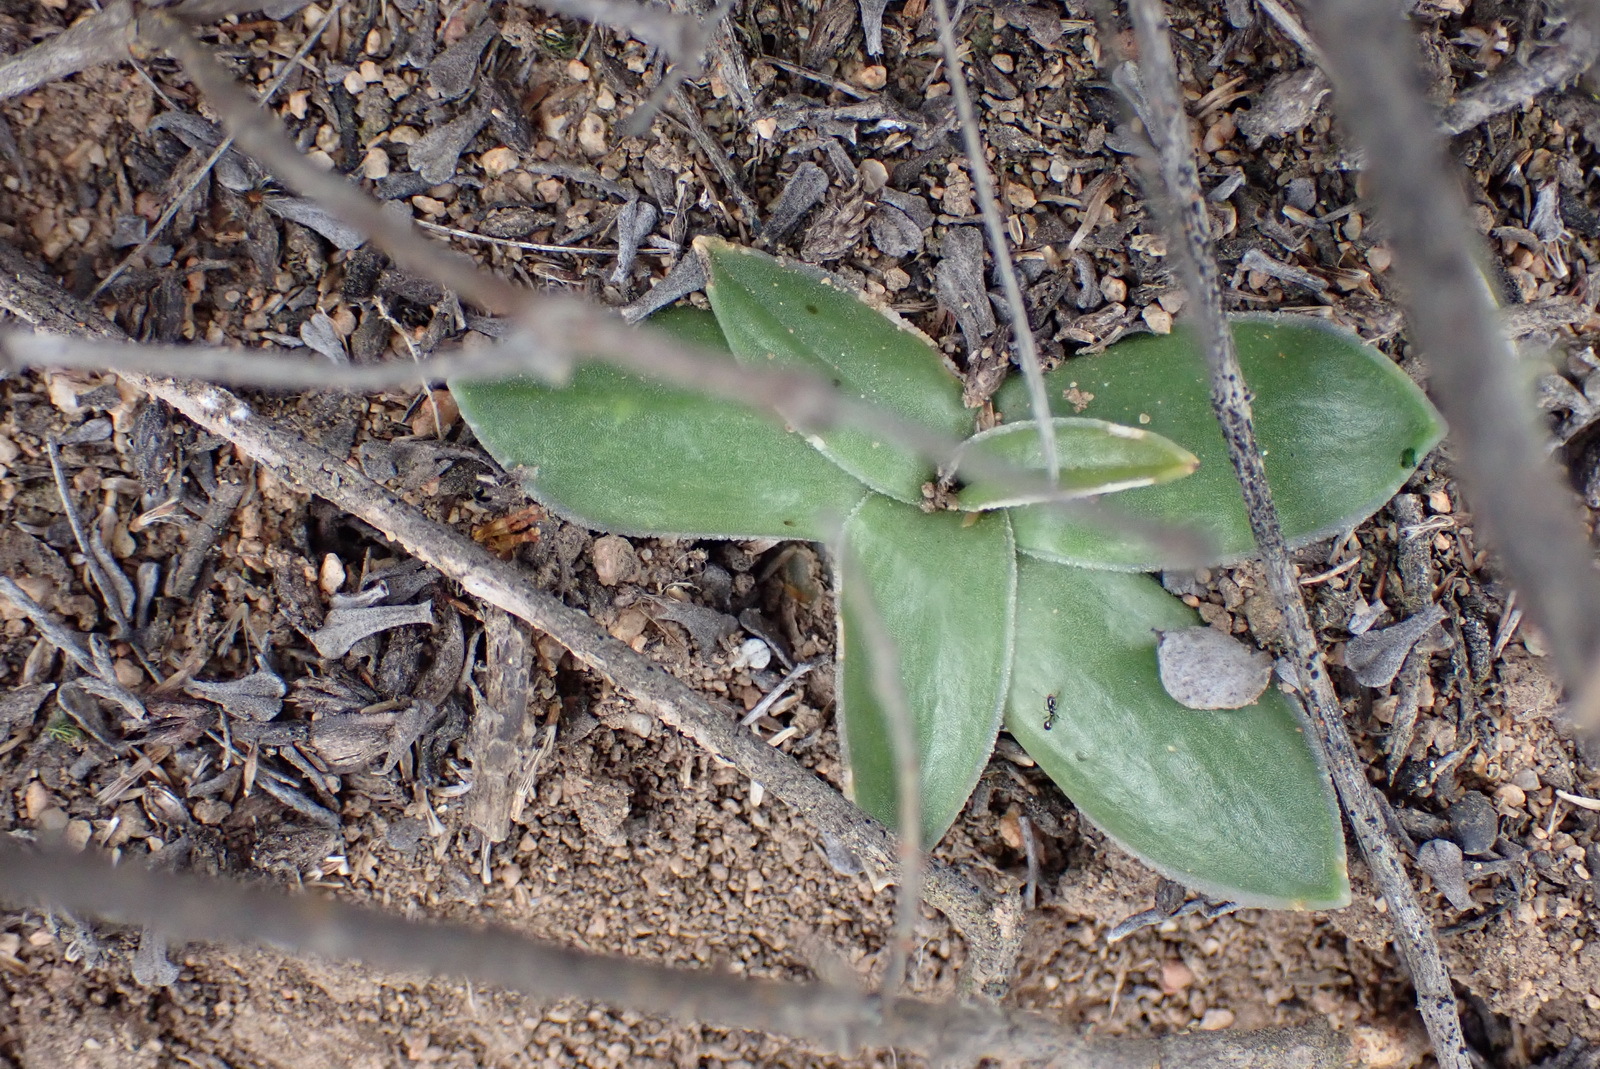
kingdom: Plantae
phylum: Tracheophyta
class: Liliopsida
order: Asparagales
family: Asparagaceae
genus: Drimia
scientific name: Drimia ciliata
